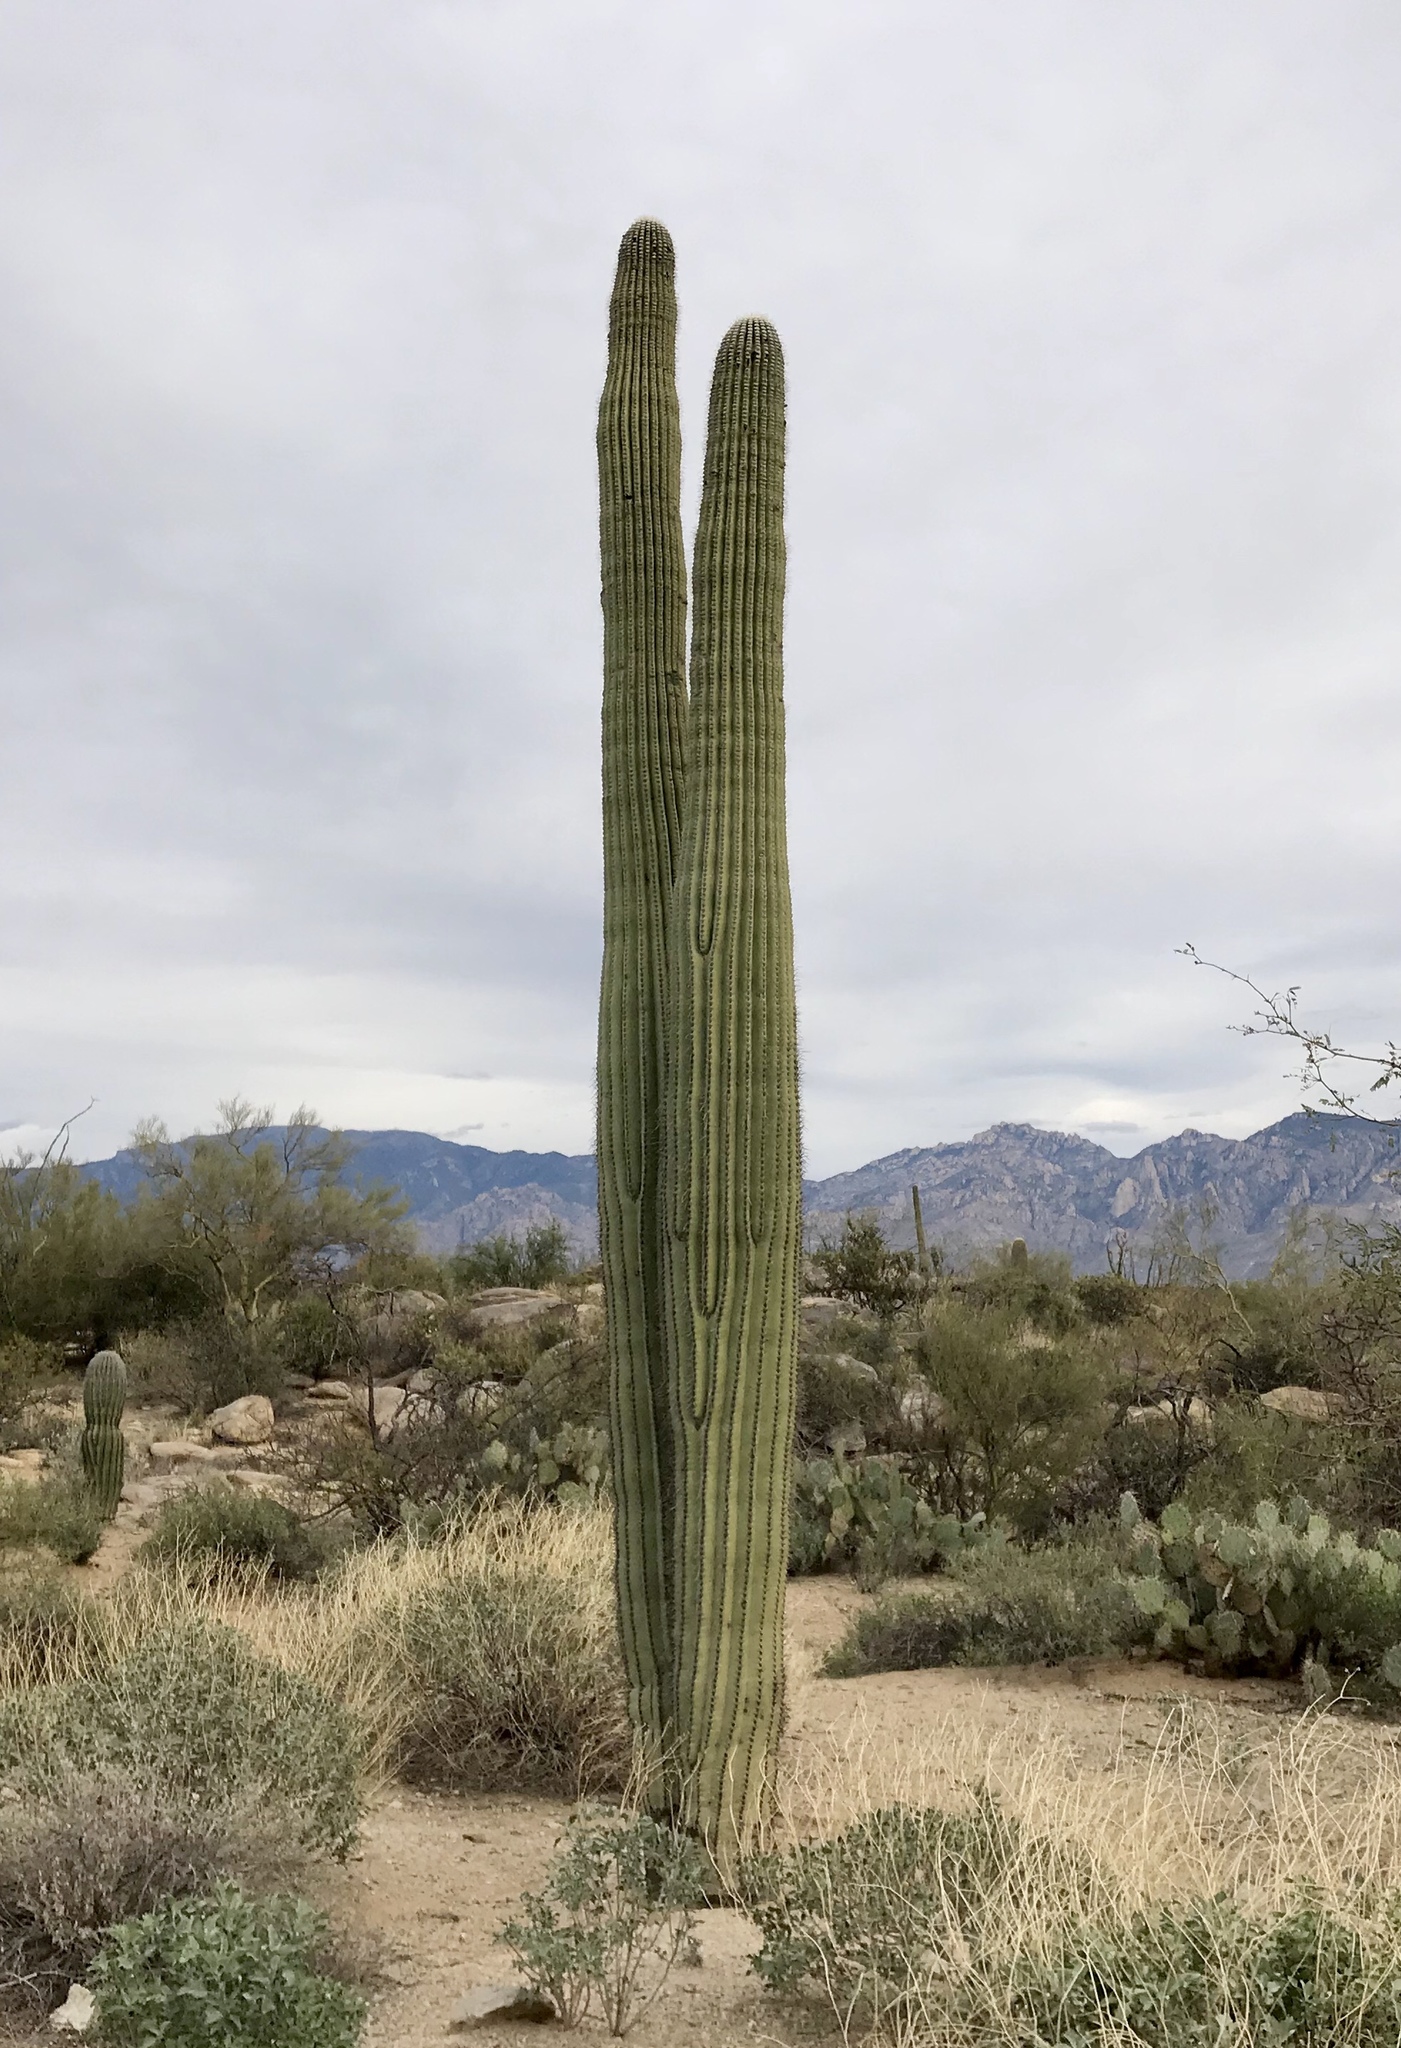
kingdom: Plantae
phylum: Tracheophyta
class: Magnoliopsida
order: Caryophyllales
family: Cactaceae
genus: Carnegiea
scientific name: Carnegiea gigantea
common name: Saguaro
